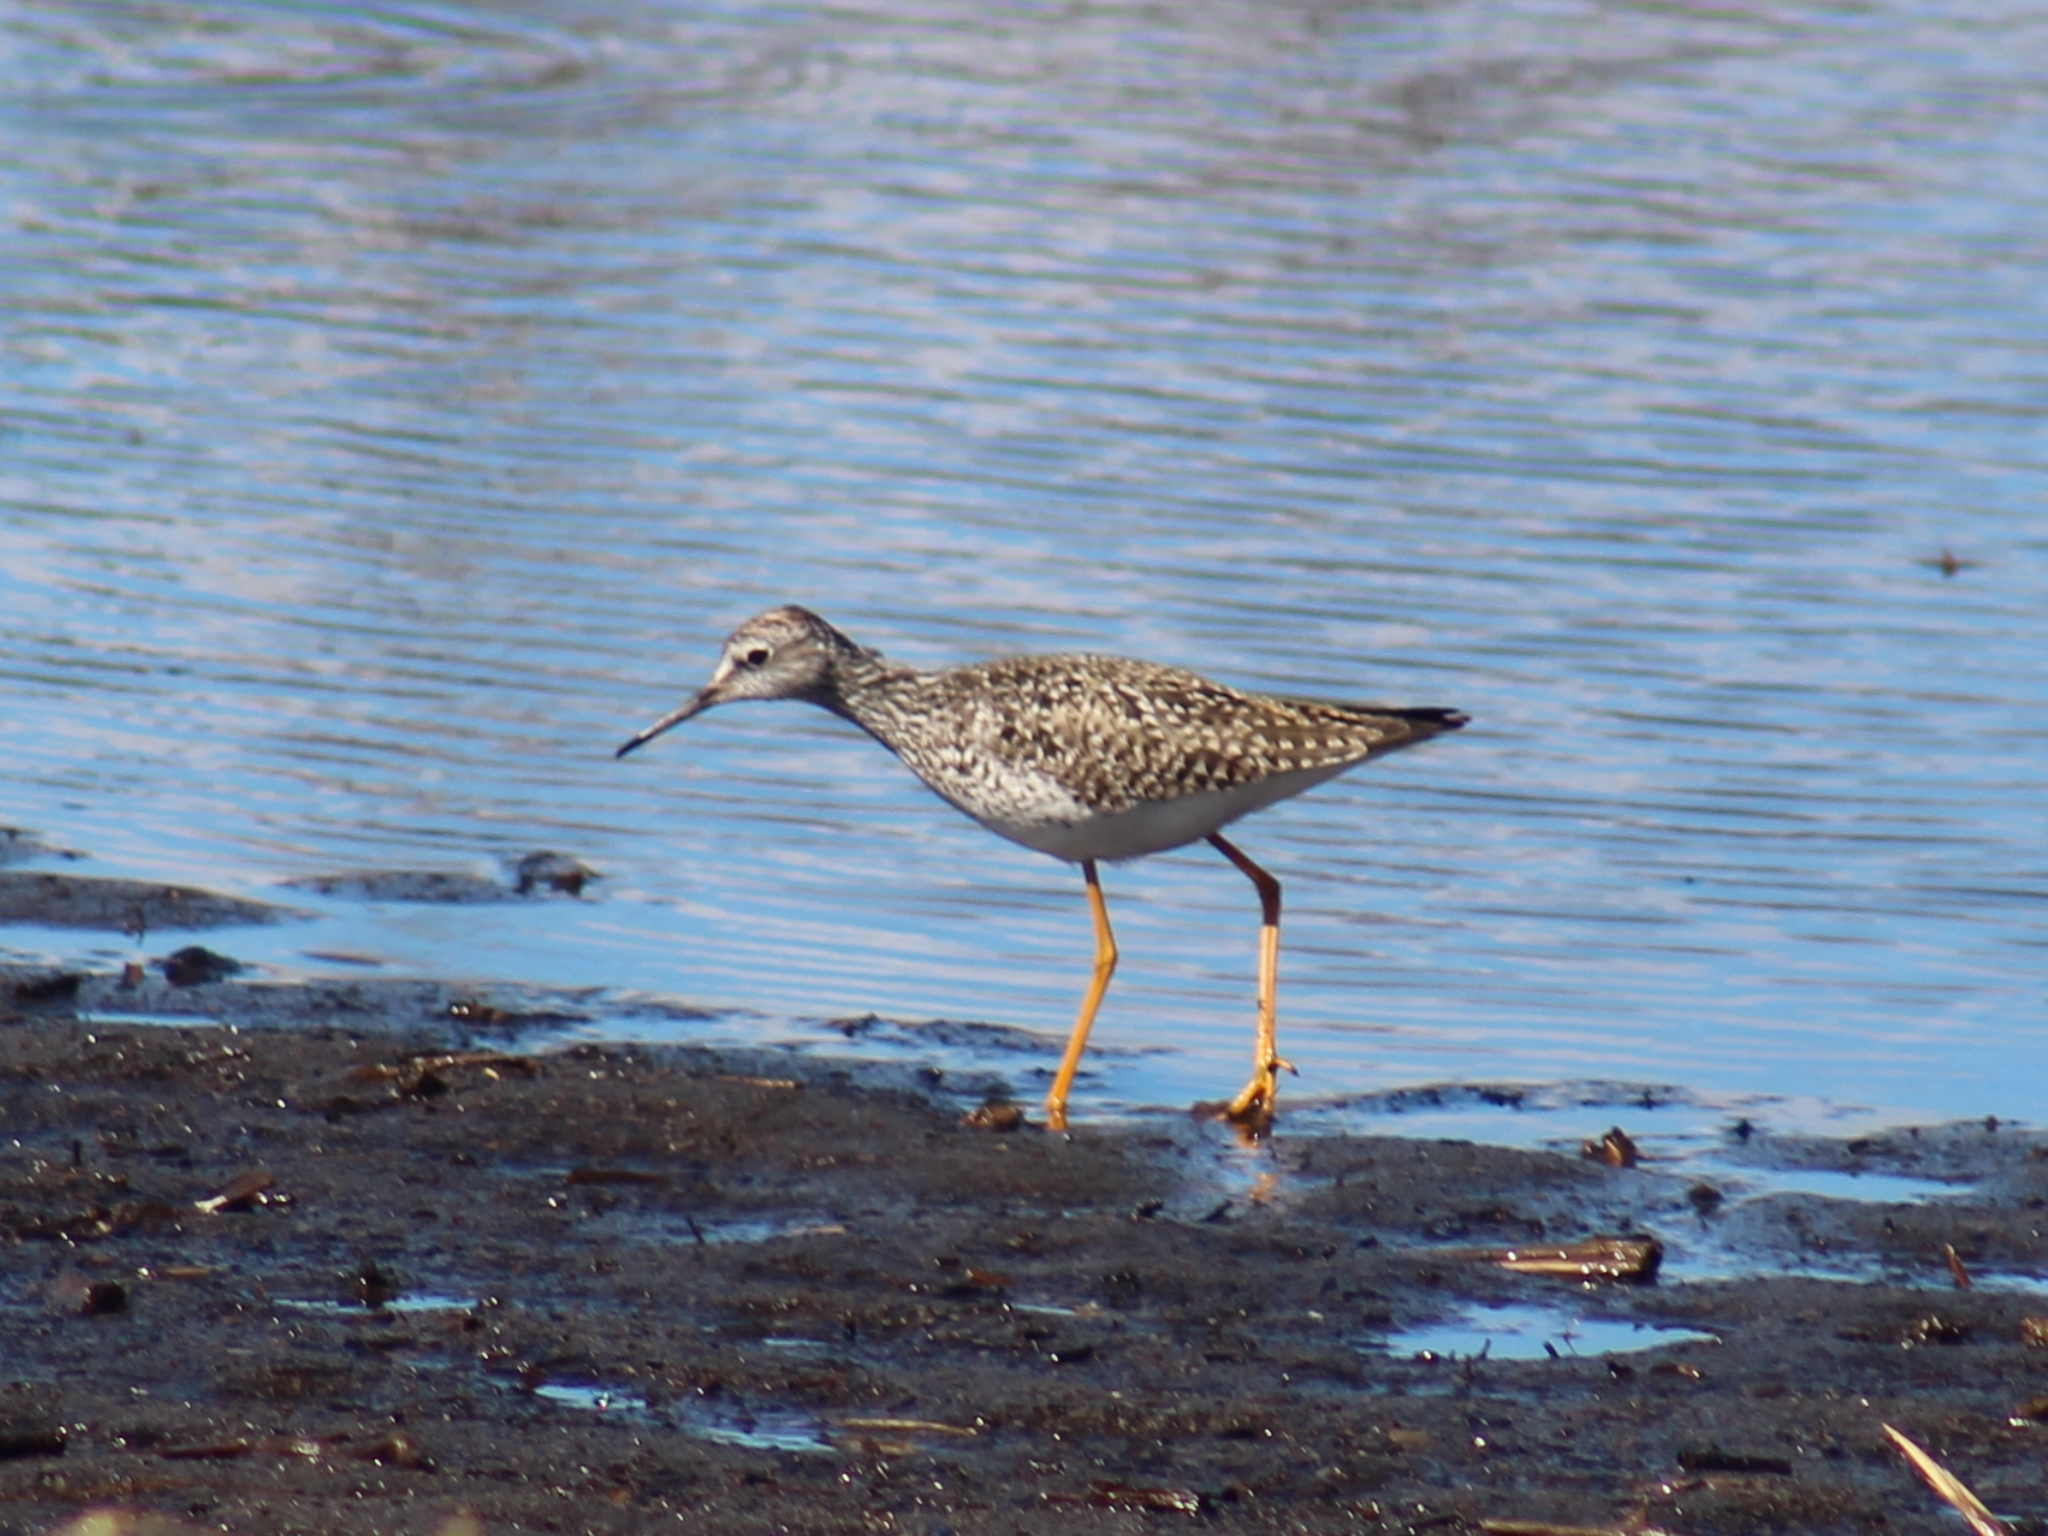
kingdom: Animalia
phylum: Chordata
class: Aves
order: Charadriiformes
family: Scolopacidae
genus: Tringa
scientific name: Tringa flavipes
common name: Lesser yellowlegs
